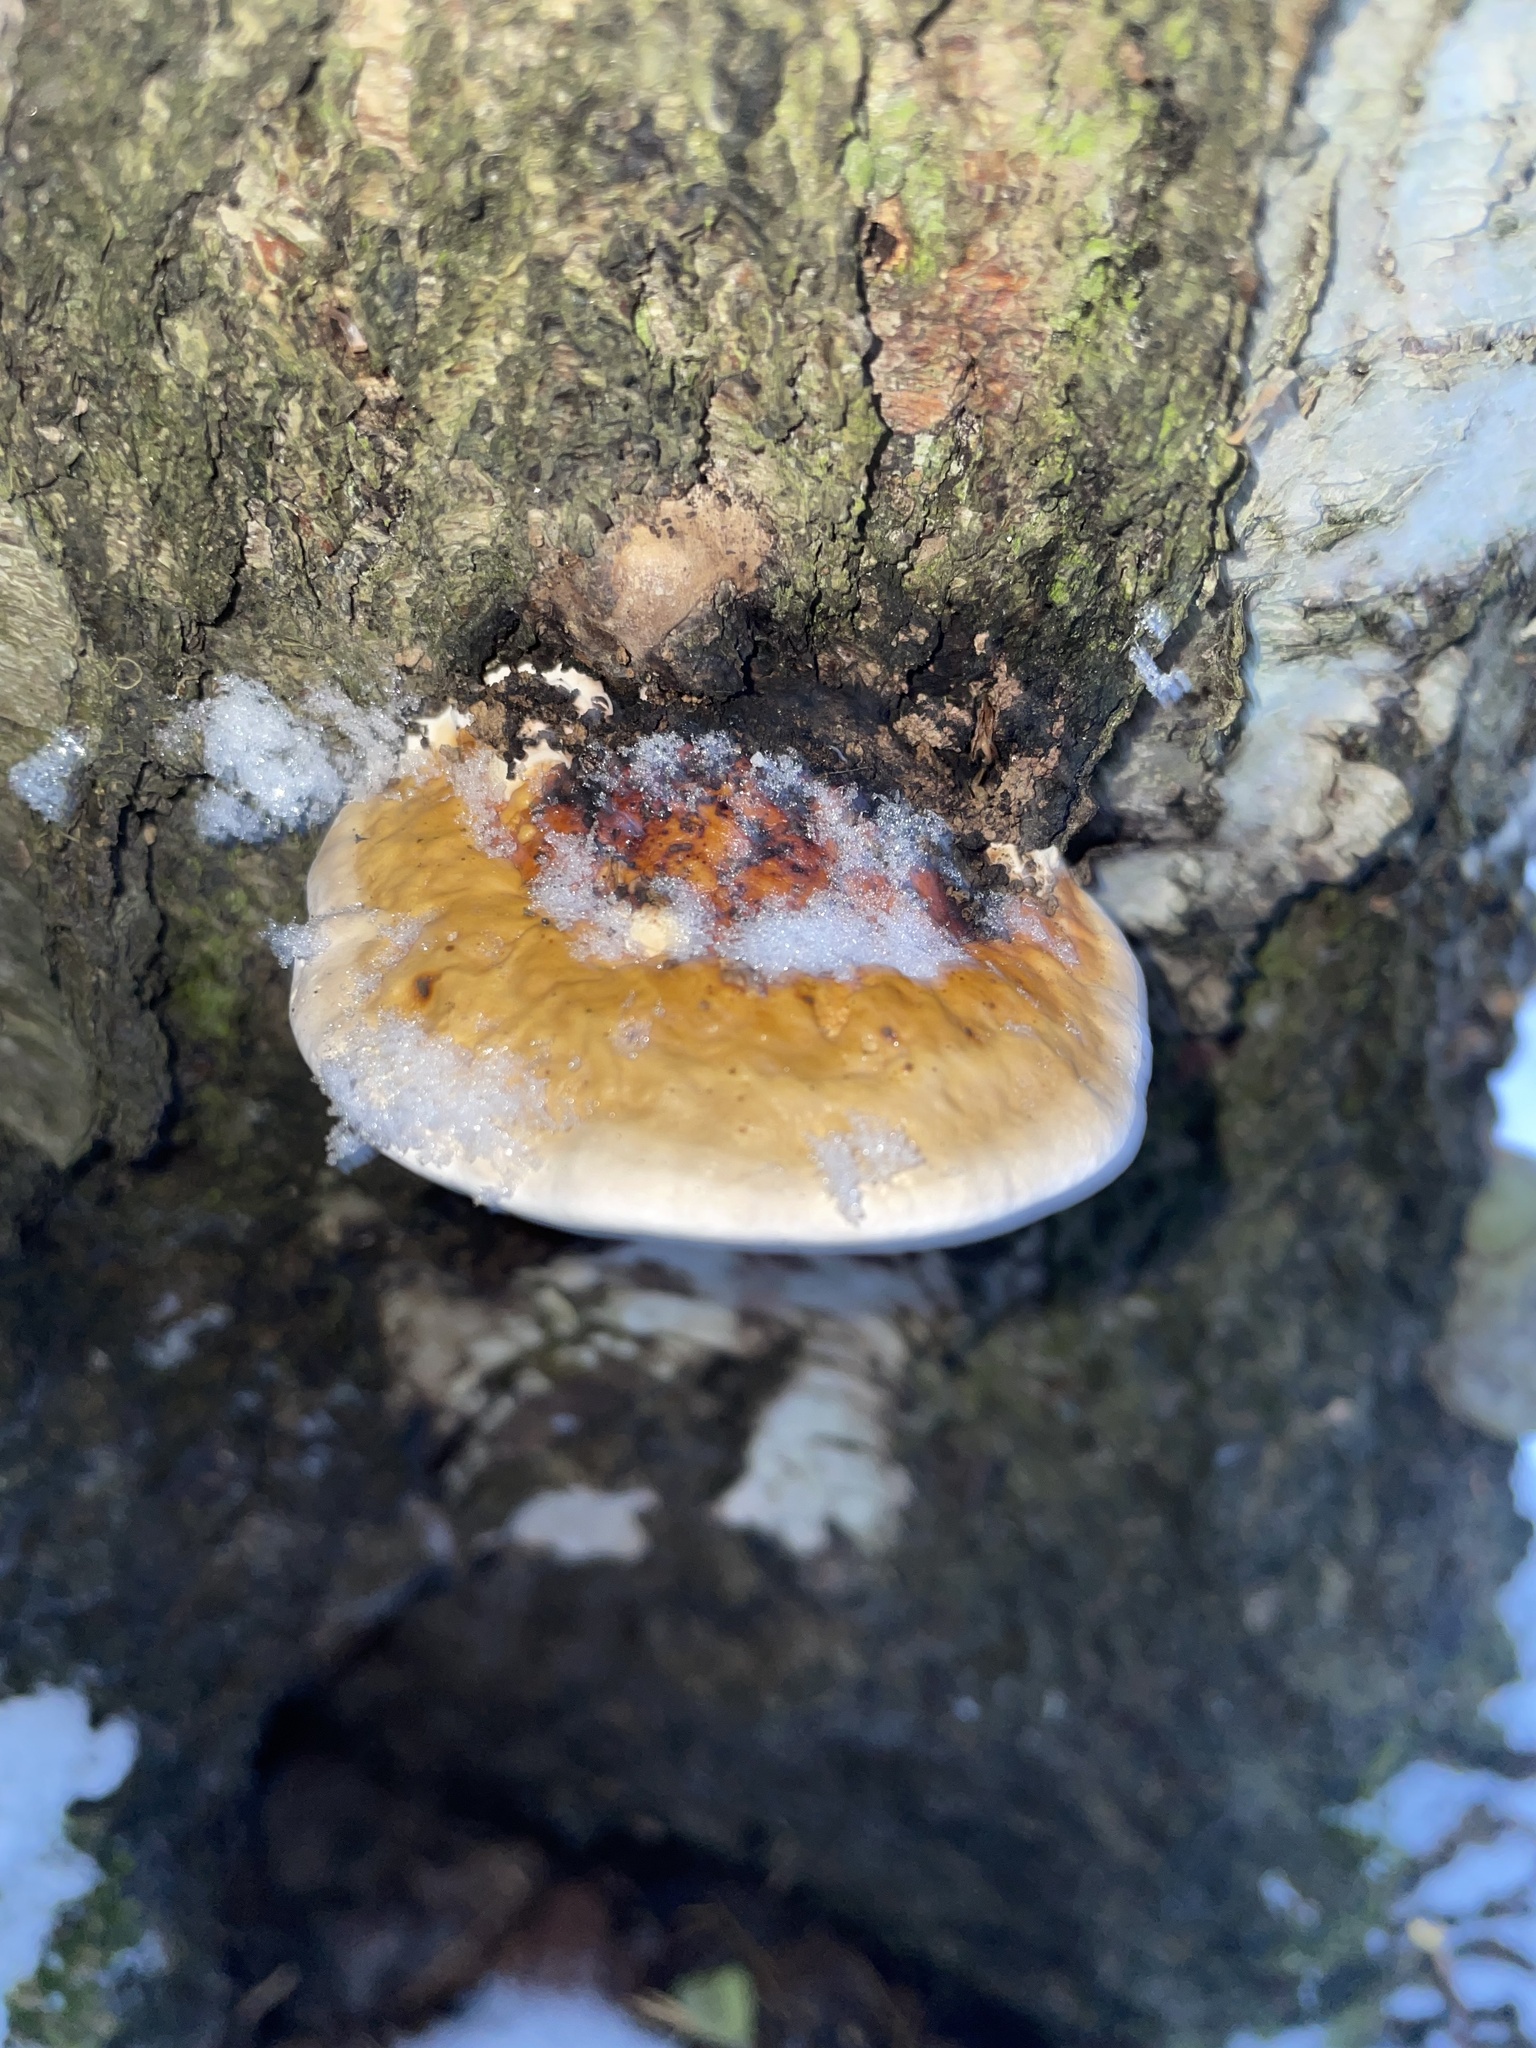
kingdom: Fungi
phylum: Basidiomycota
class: Agaricomycetes
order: Polyporales
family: Fomitopsidaceae
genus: Fomitopsis
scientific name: Fomitopsis pinicola
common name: Red-belted bracket
